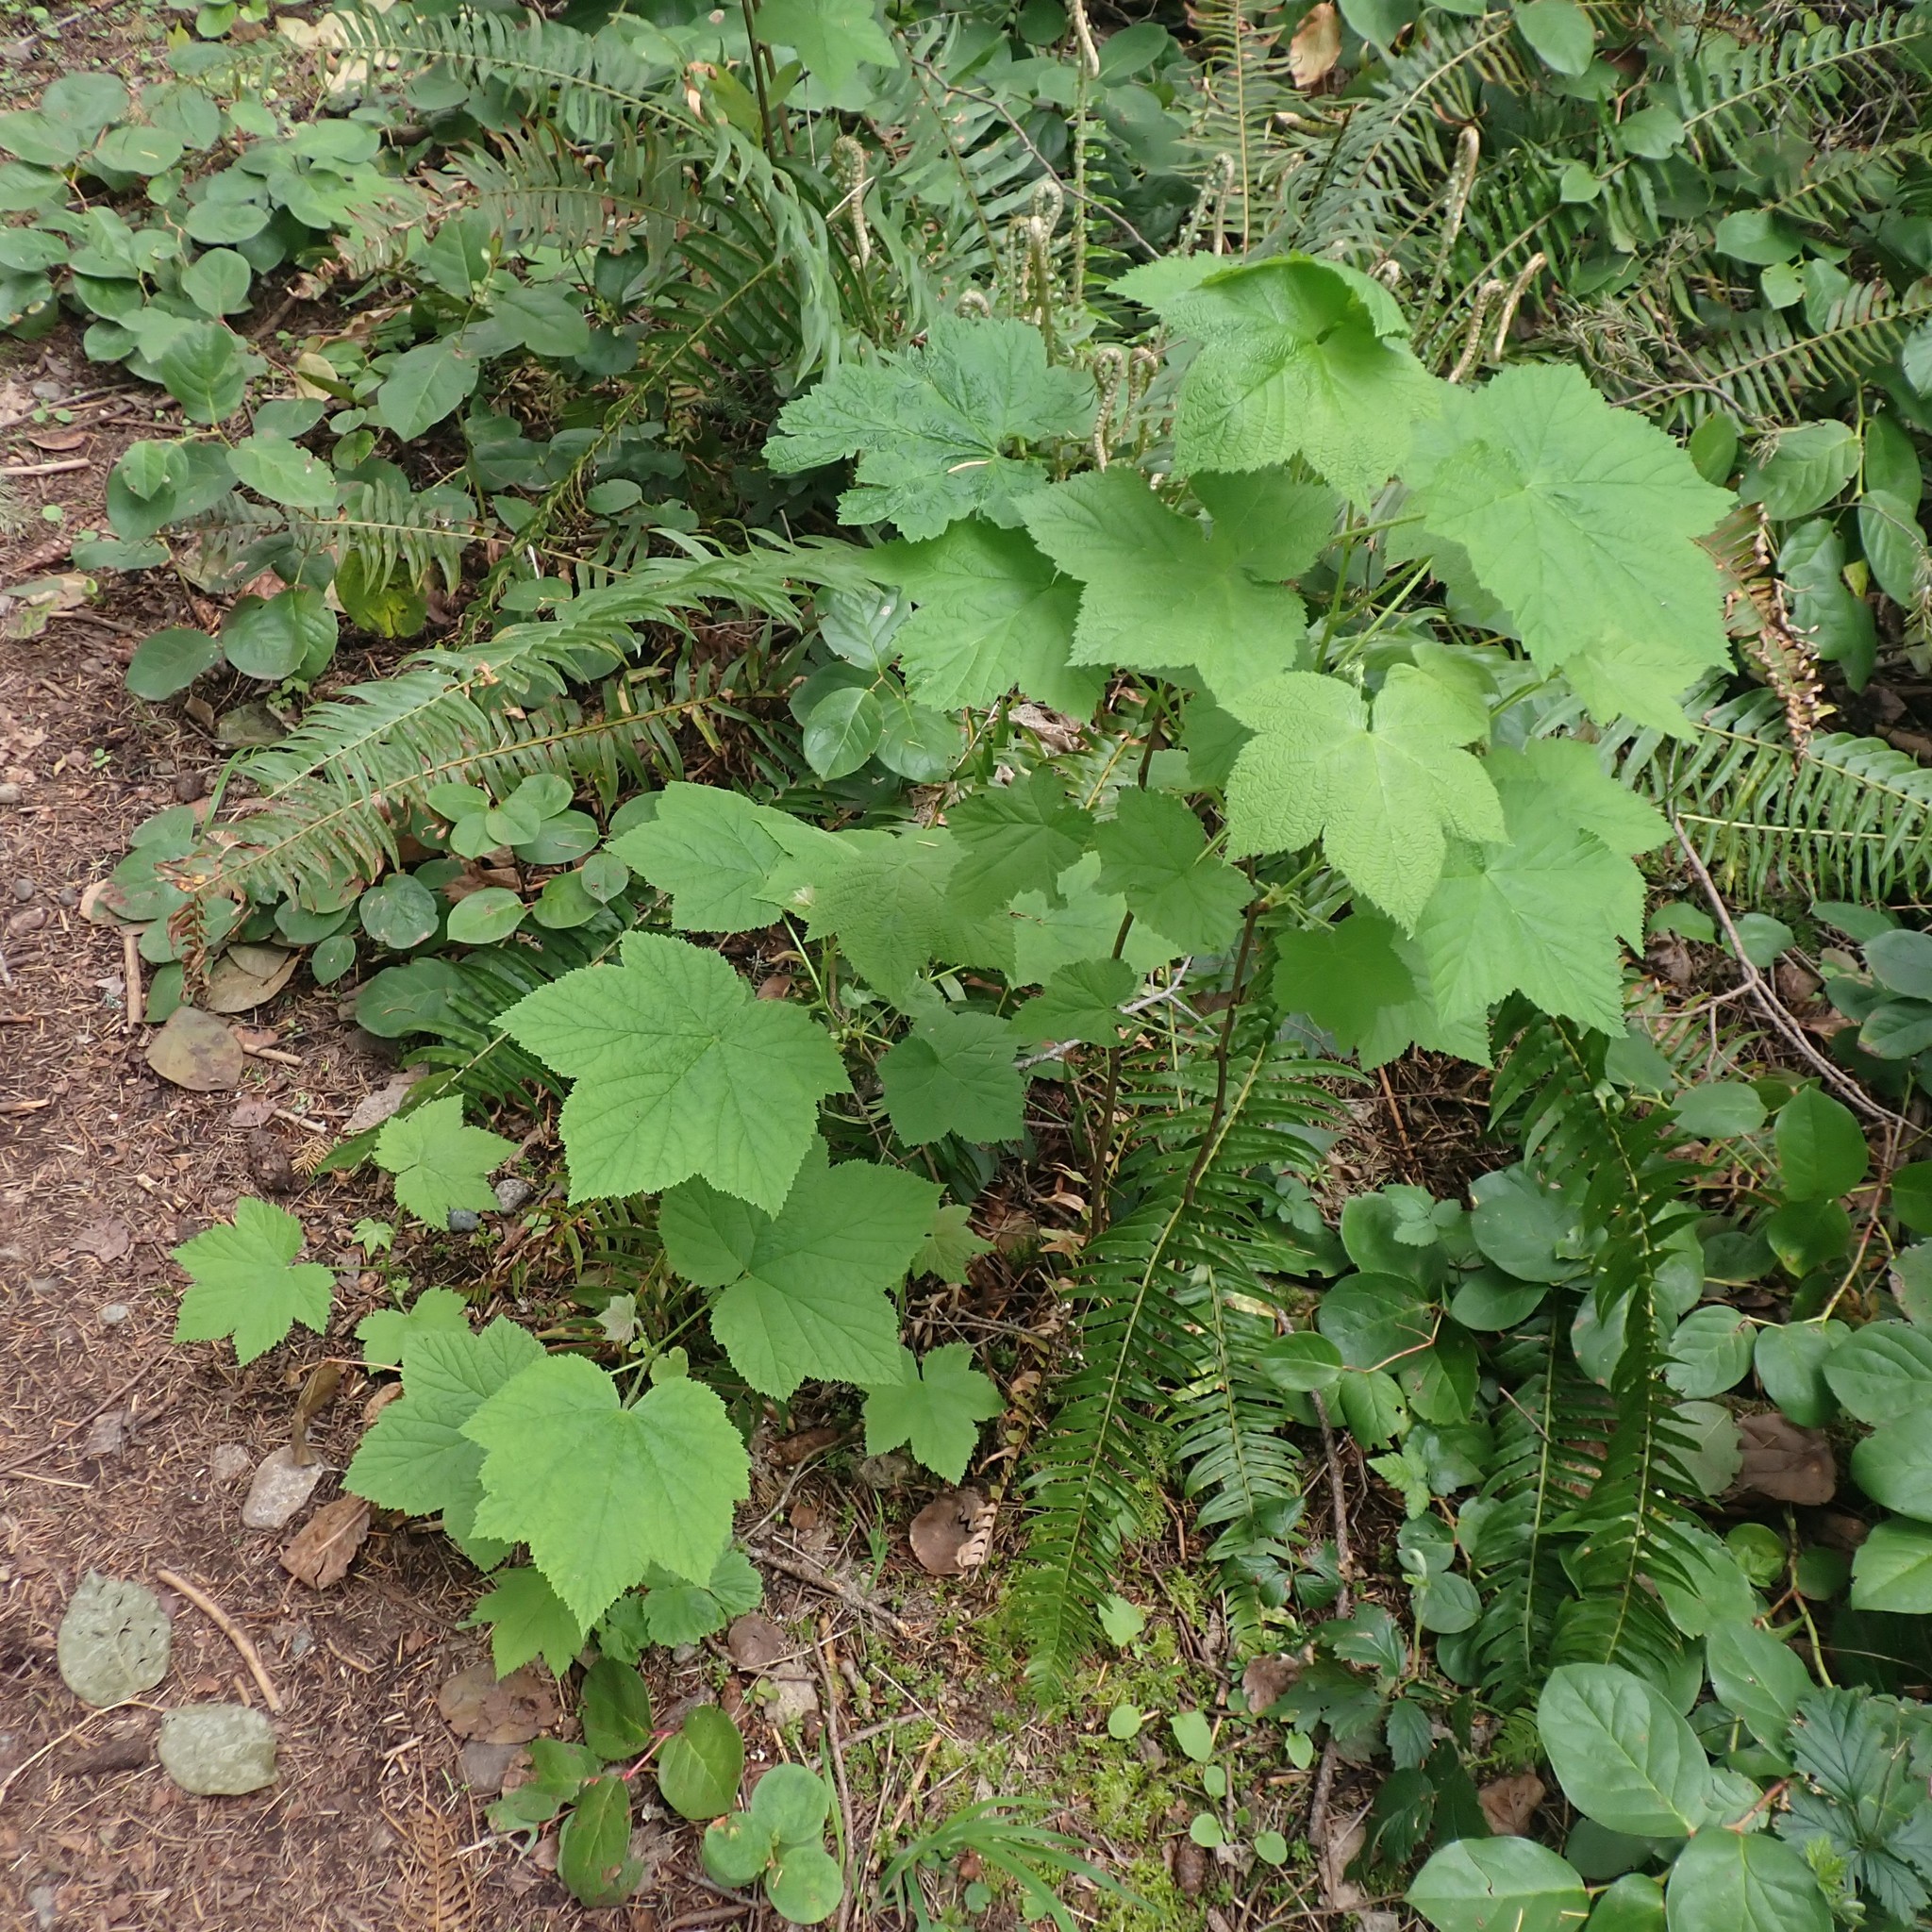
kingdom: Plantae
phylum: Tracheophyta
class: Magnoliopsida
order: Rosales
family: Rosaceae
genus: Rubus
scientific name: Rubus parviflorus
